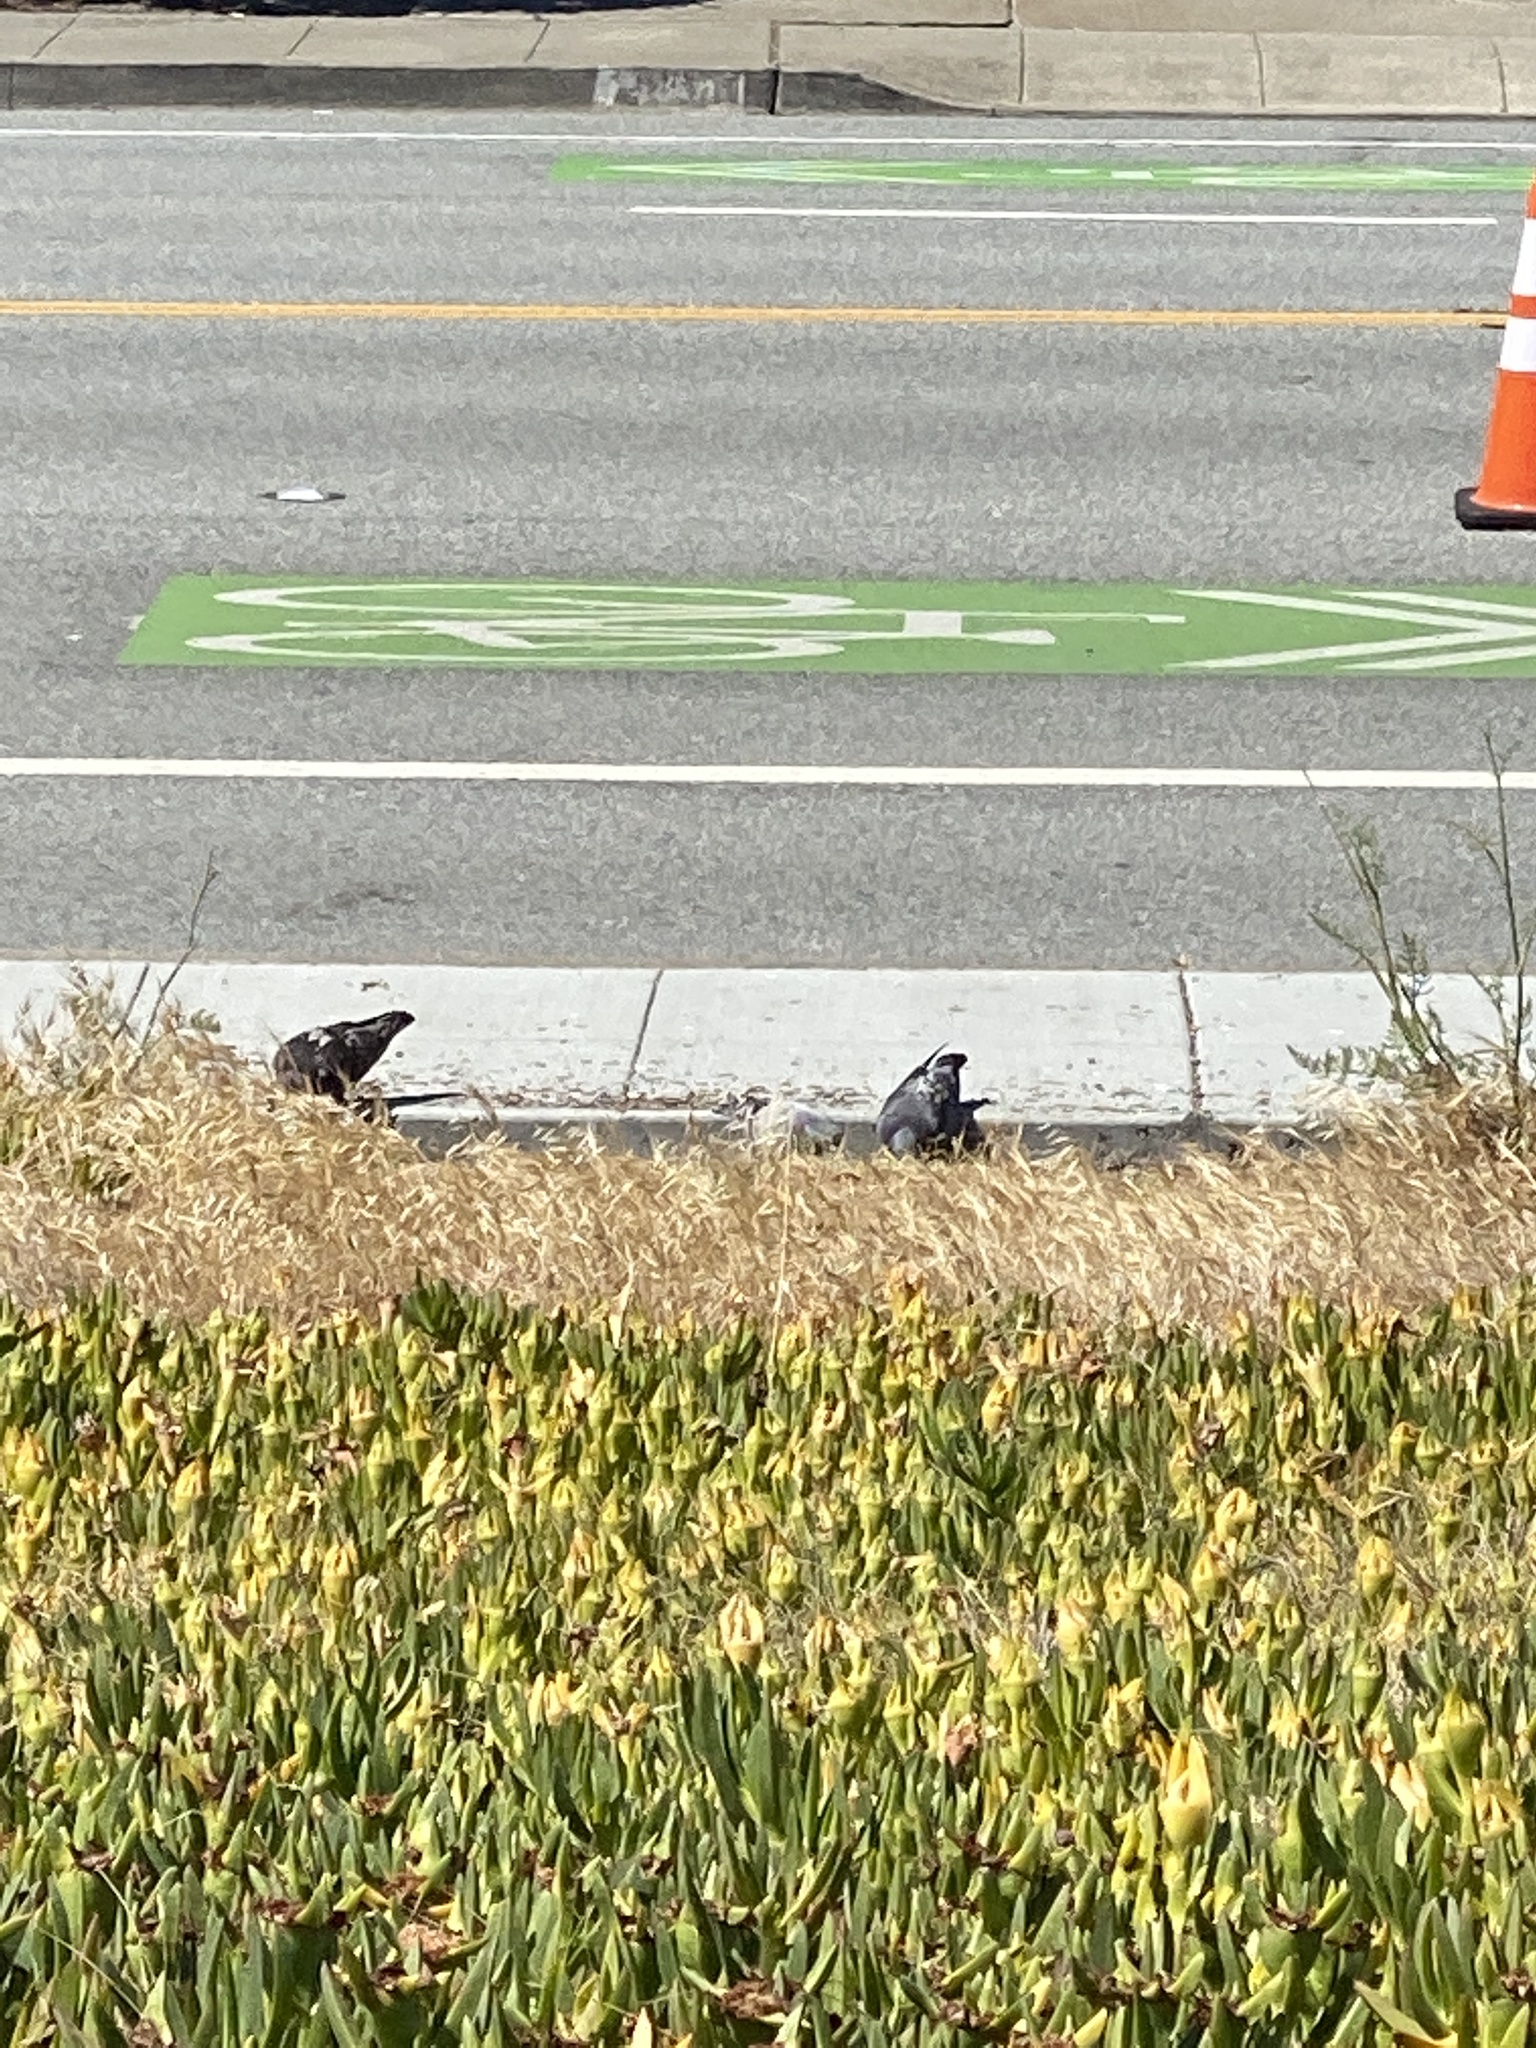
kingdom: Animalia
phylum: Chordata
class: Aves
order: Columbiformes
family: Columbidae
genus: Columba
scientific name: Columba livia
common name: Rock pigeon
